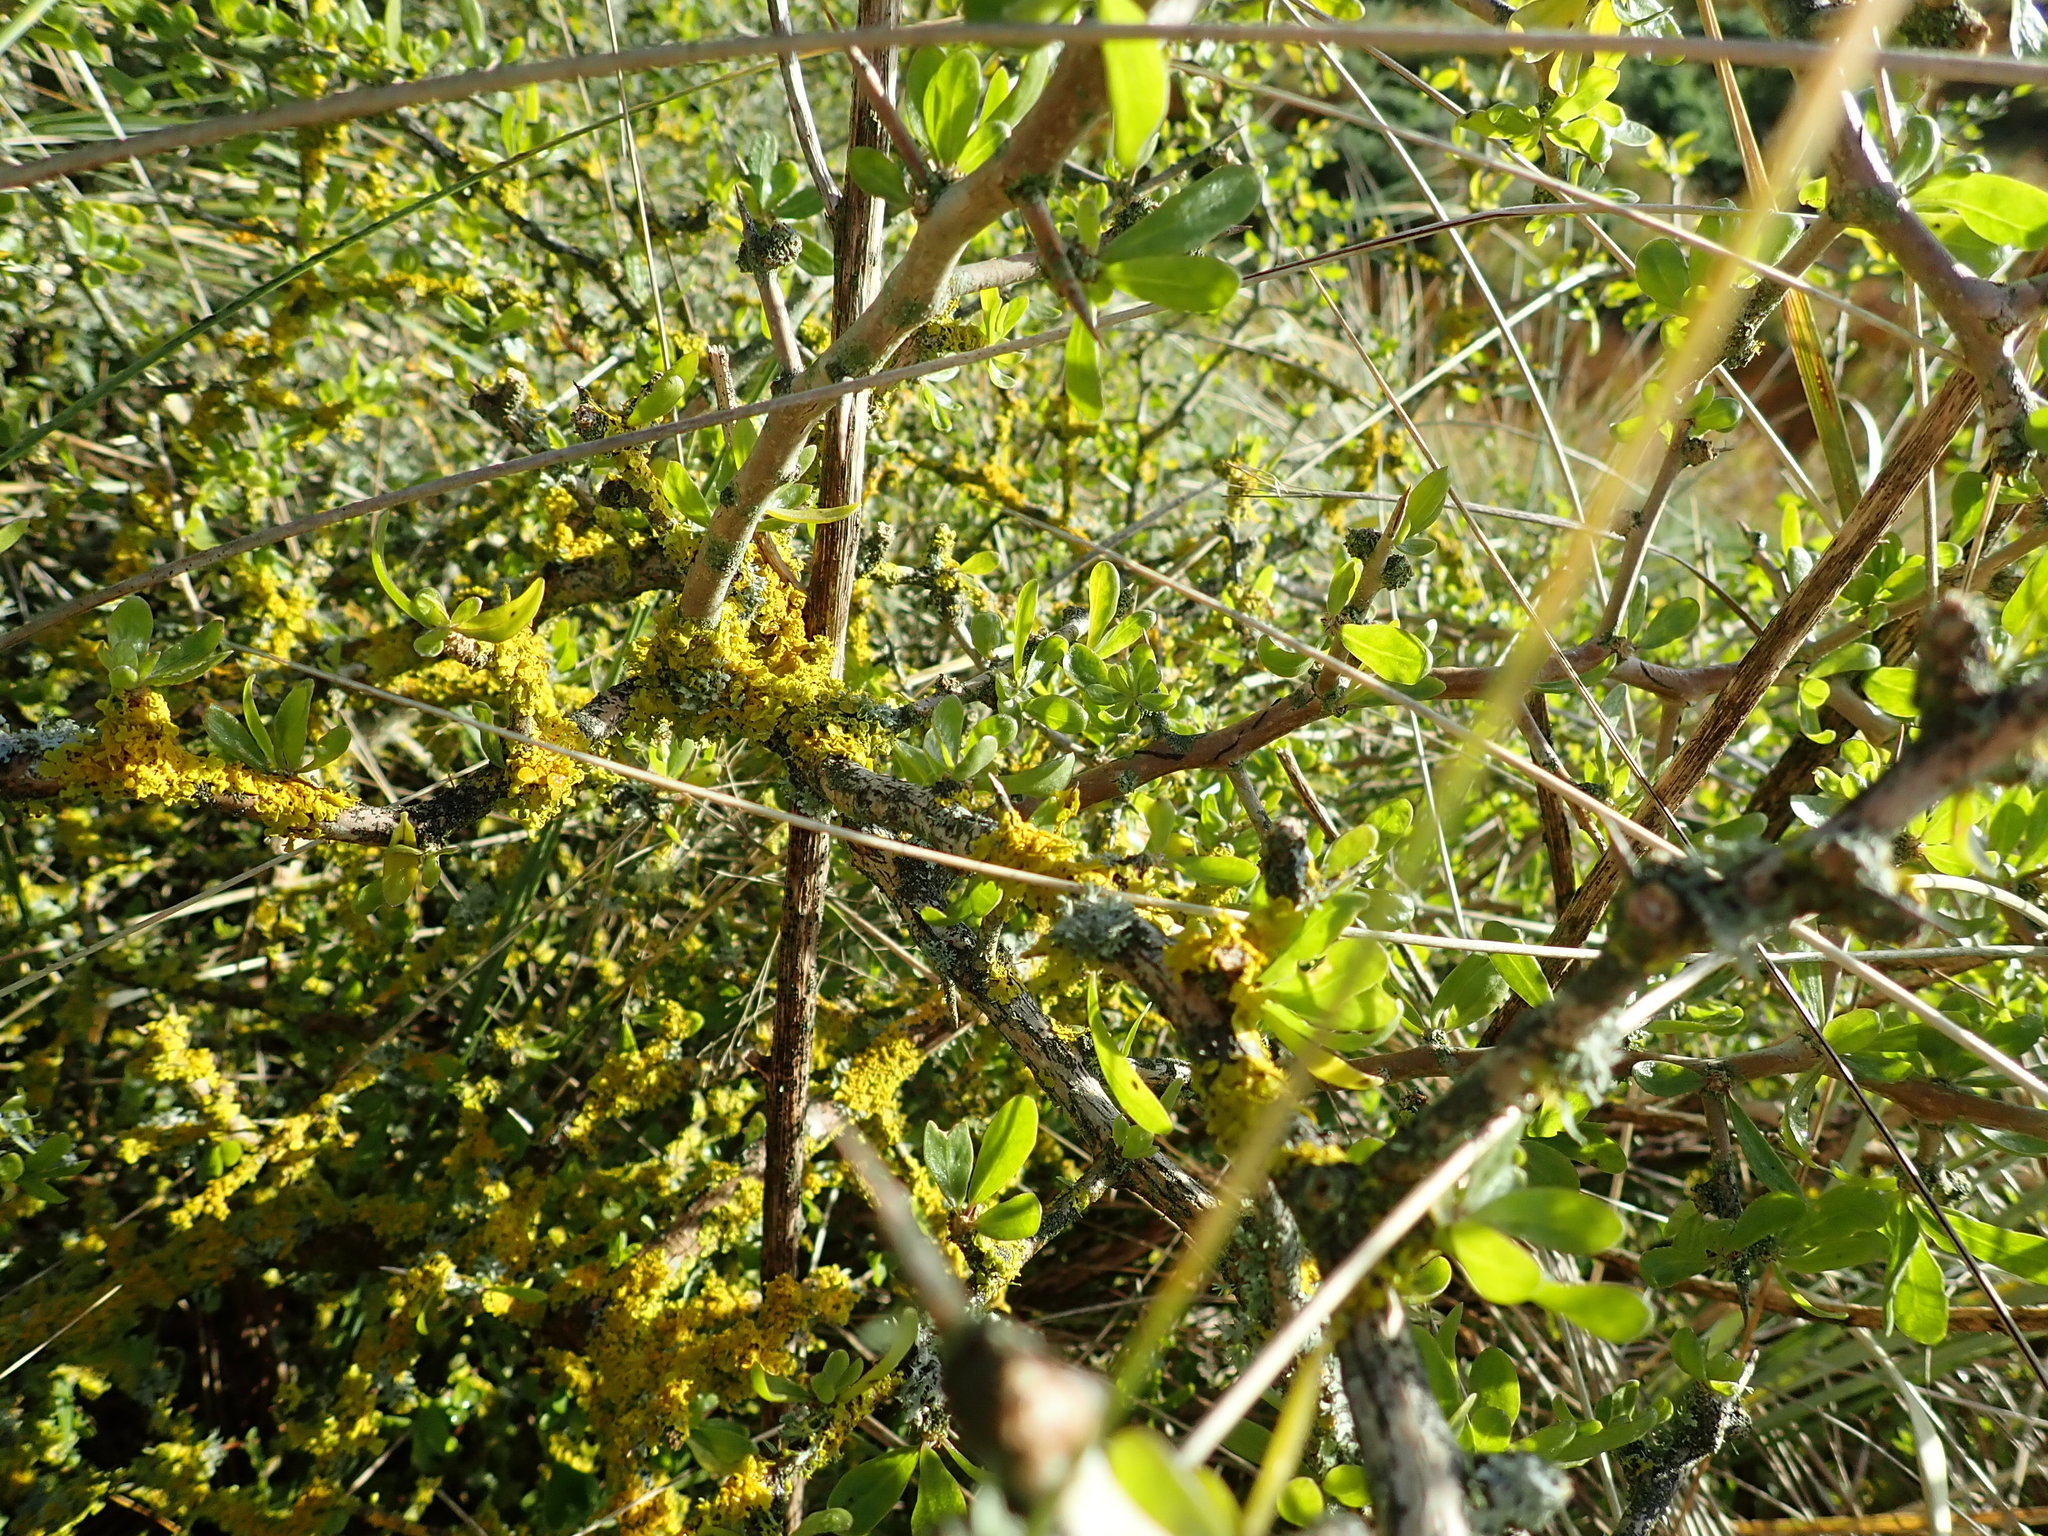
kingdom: Plantae
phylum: Tracheophyta
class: Magnoliopsida
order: Solanales
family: Solanaceae
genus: Lycium
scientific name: Lycium ferocissimum
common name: African boxthorn
